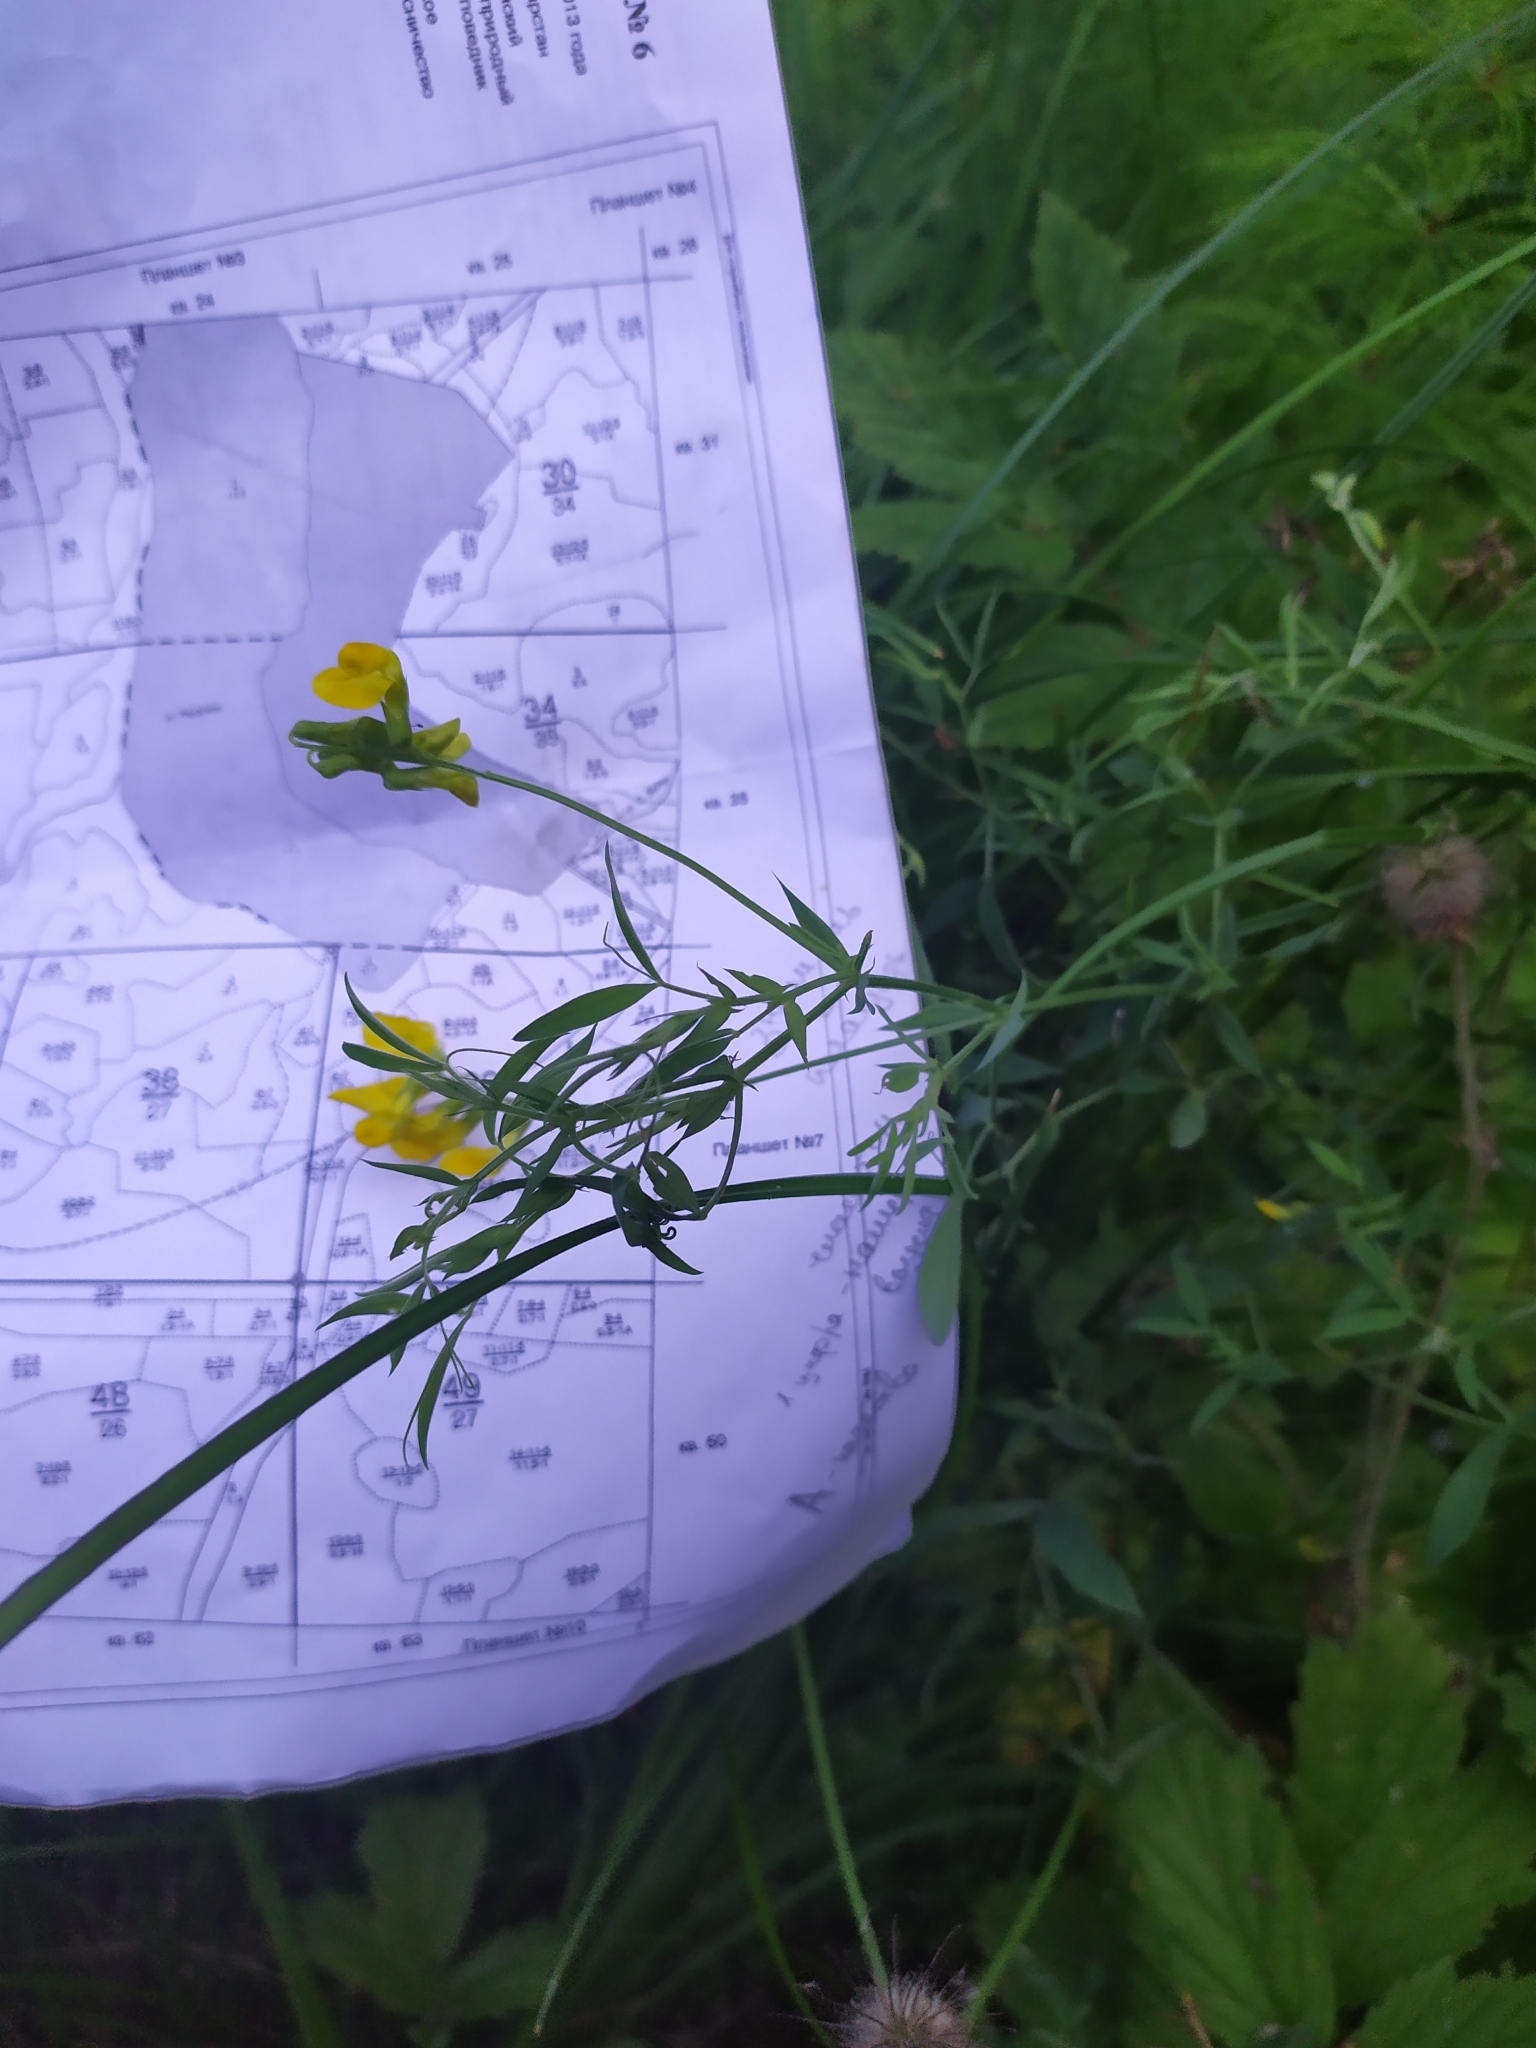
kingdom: Plantae
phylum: Tracheophyta
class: Magnoliopsida
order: Fabales
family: Fabaceae
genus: Lathyrus
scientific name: Lathyrus pratensis
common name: Meadow vetchling
